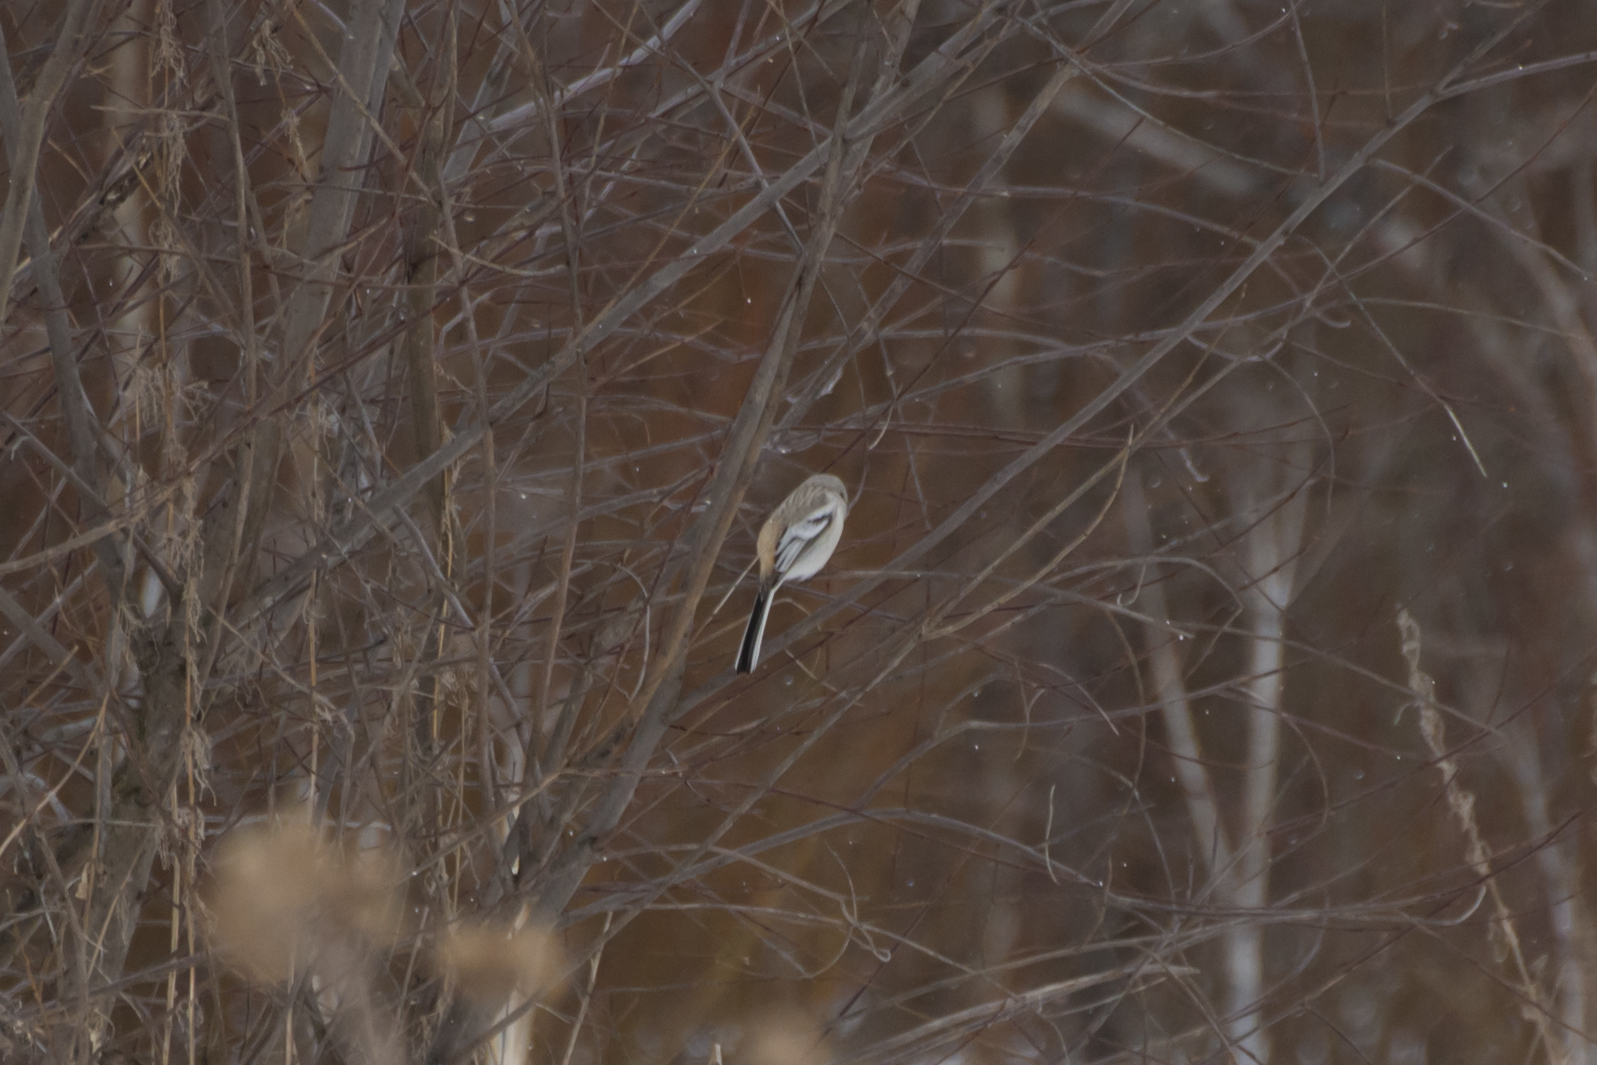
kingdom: Animalia
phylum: Chordata
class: Aves
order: Passeriformes
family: Fringillidae
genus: Carpodacus
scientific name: Carpodacus sibiricus
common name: Long-tailed rosefinch
